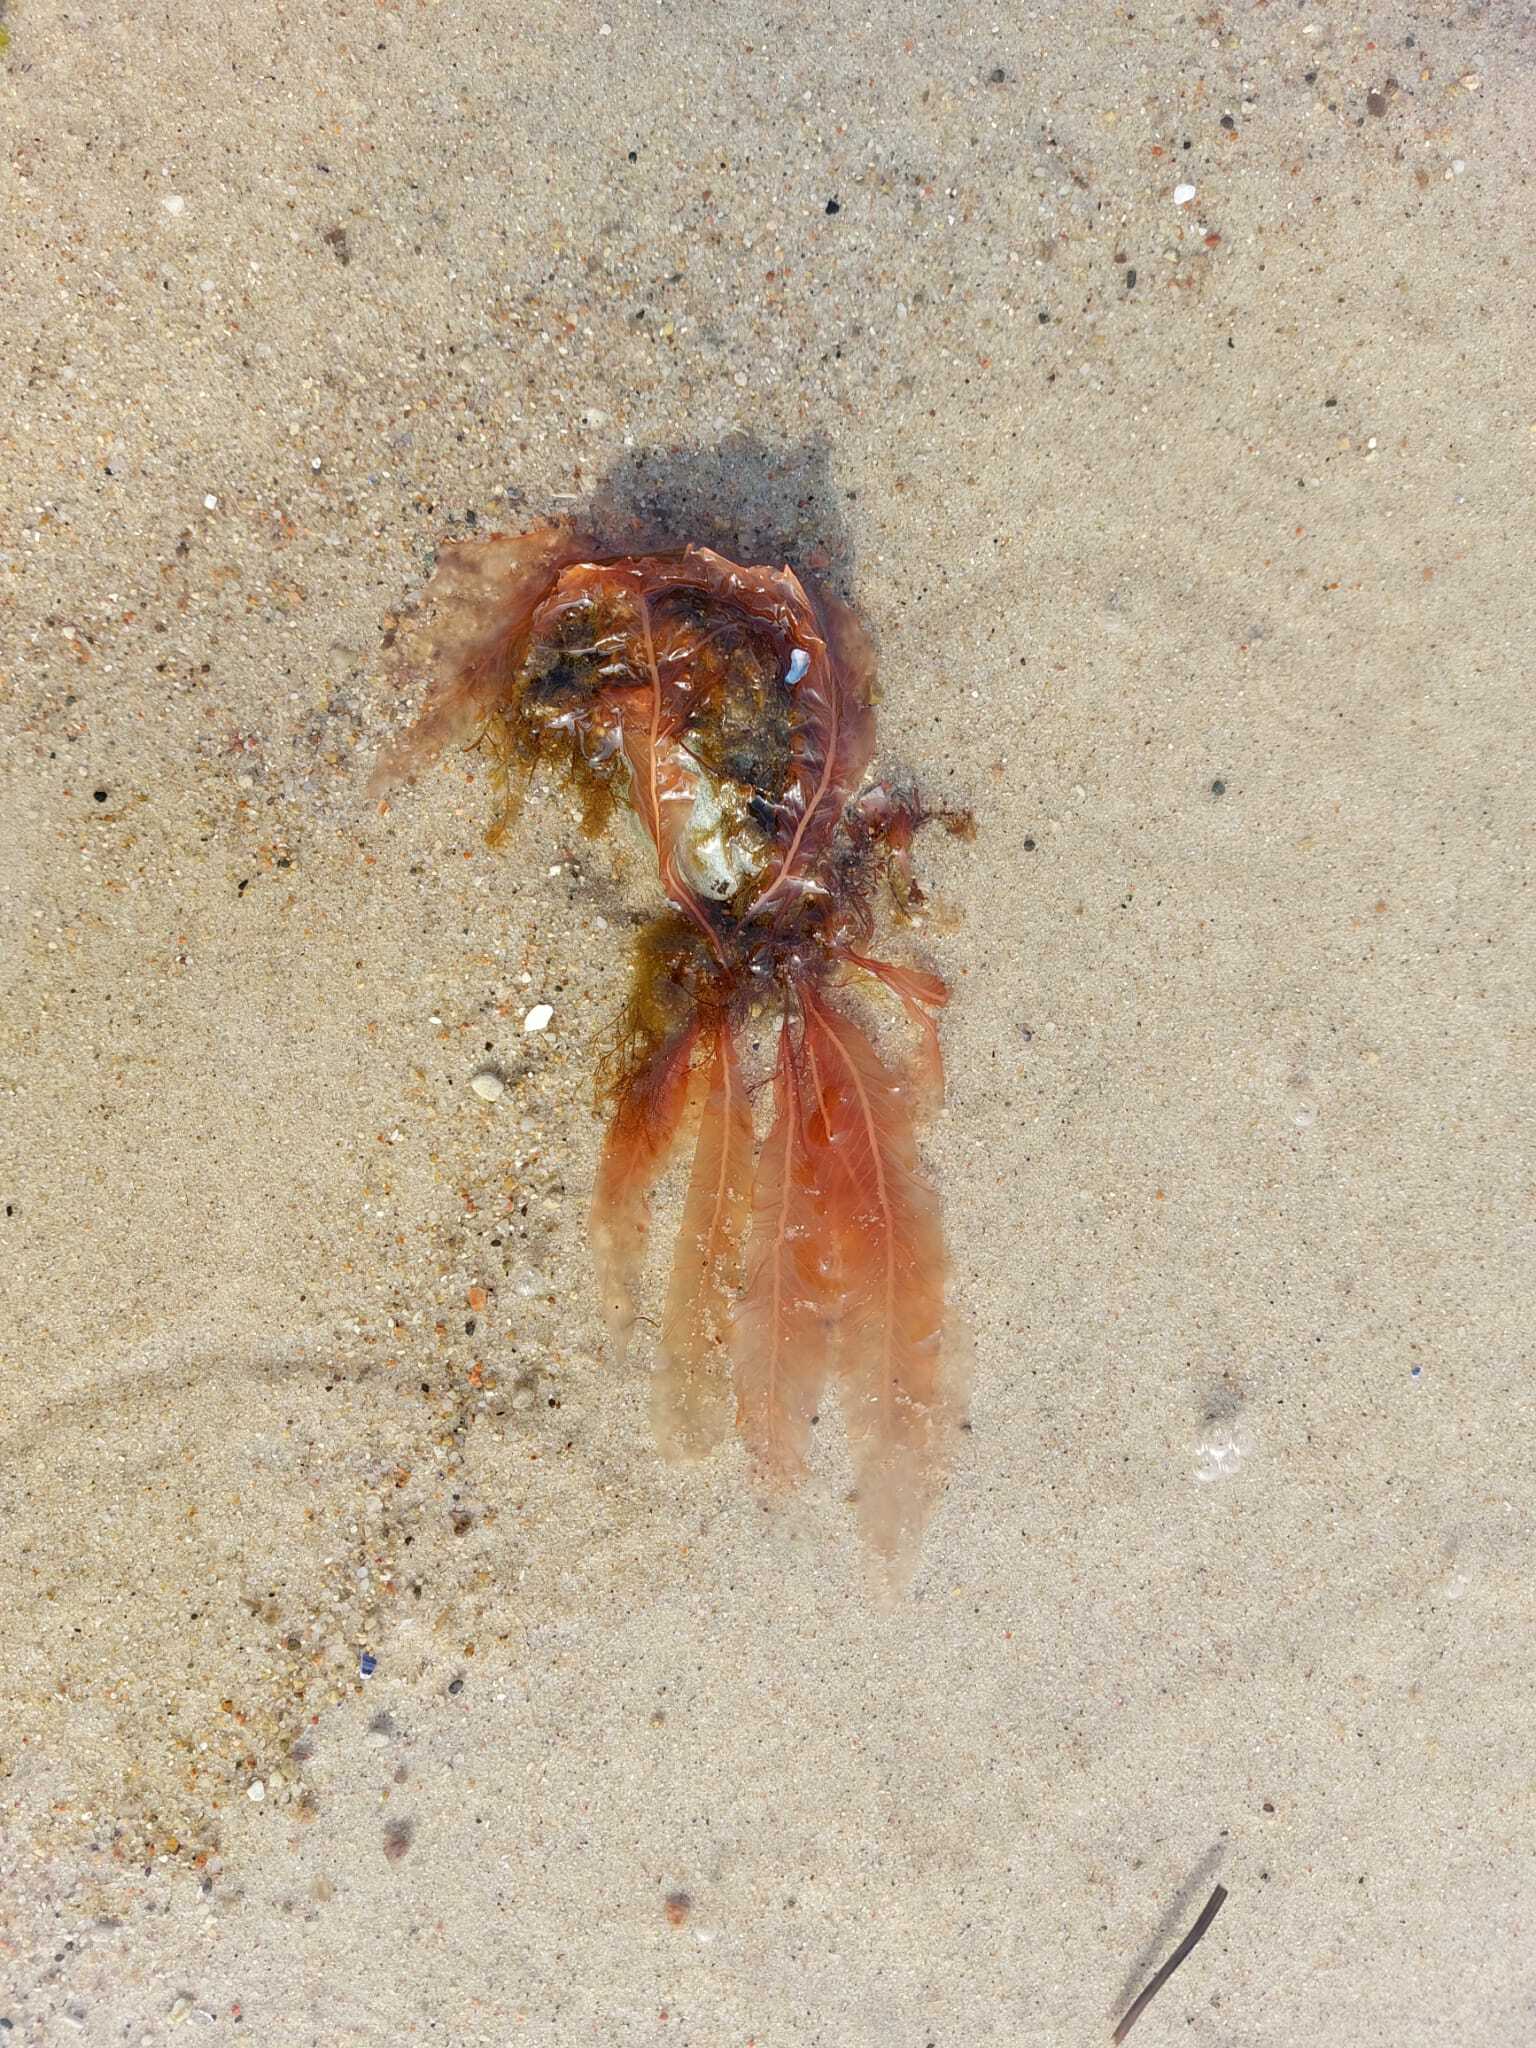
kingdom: Plantae
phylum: Rhodophyta
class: Florideophyceae
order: Ceramiales
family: Delesseriaceae
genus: Delesseria
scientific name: Delesseria sanguinea
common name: Sea beech
